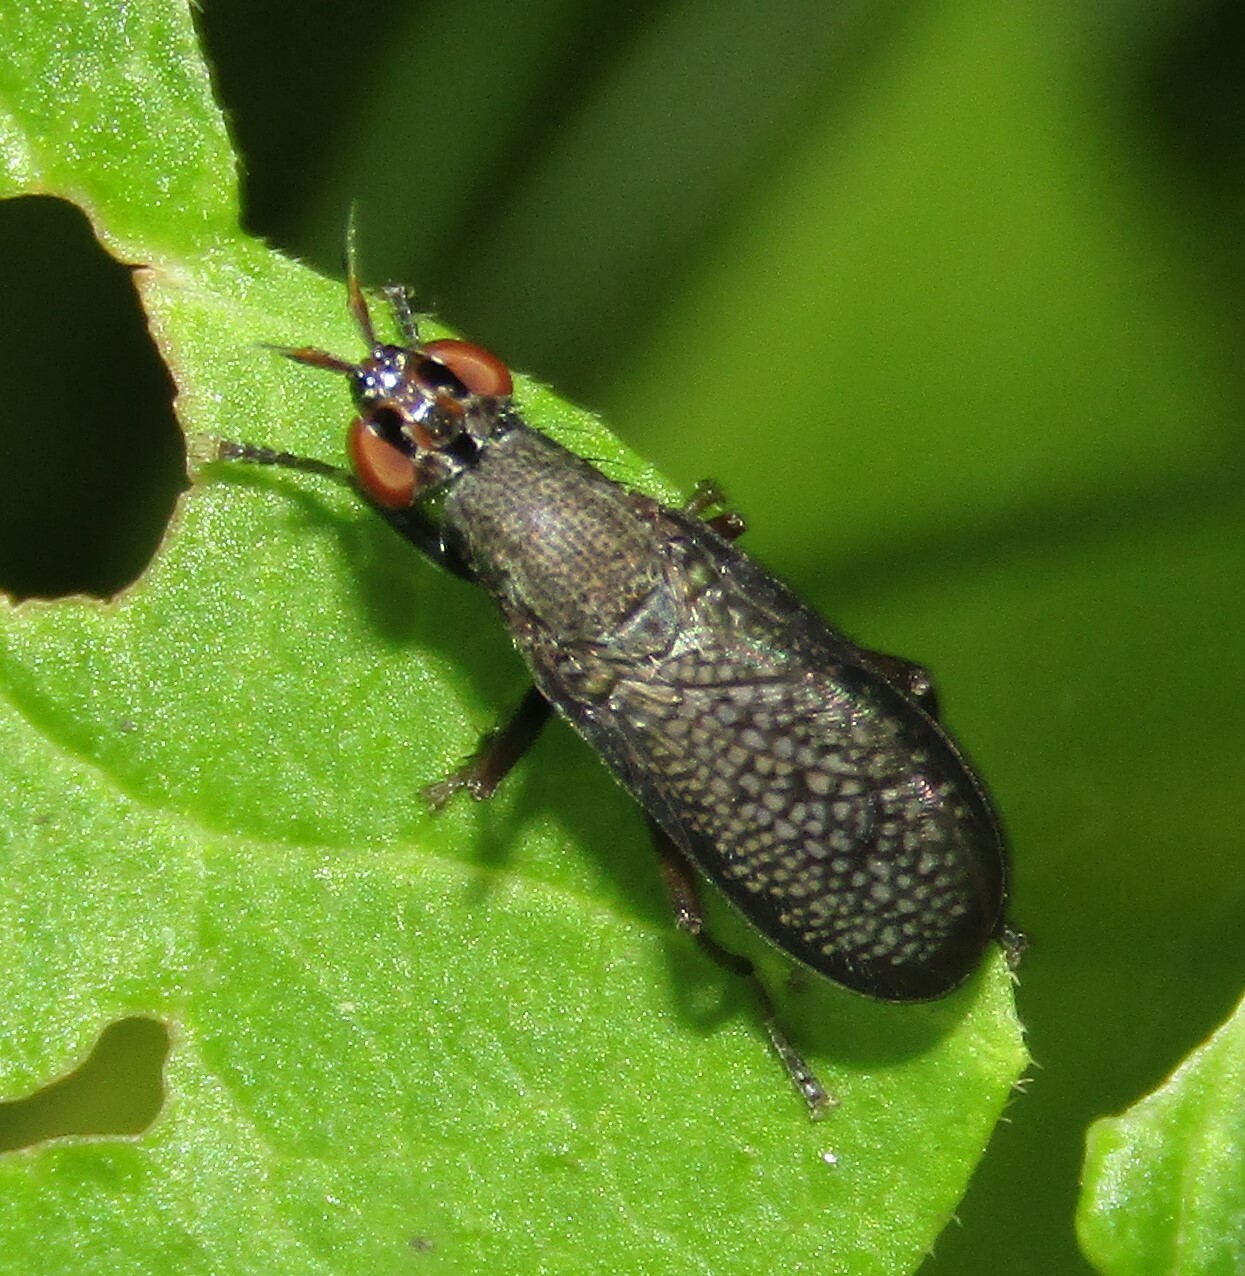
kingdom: Animalia
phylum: Arthropoda
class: Insecta
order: Diptera
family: Sciomyzidae
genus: Coremacera
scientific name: Coremacera marginata
